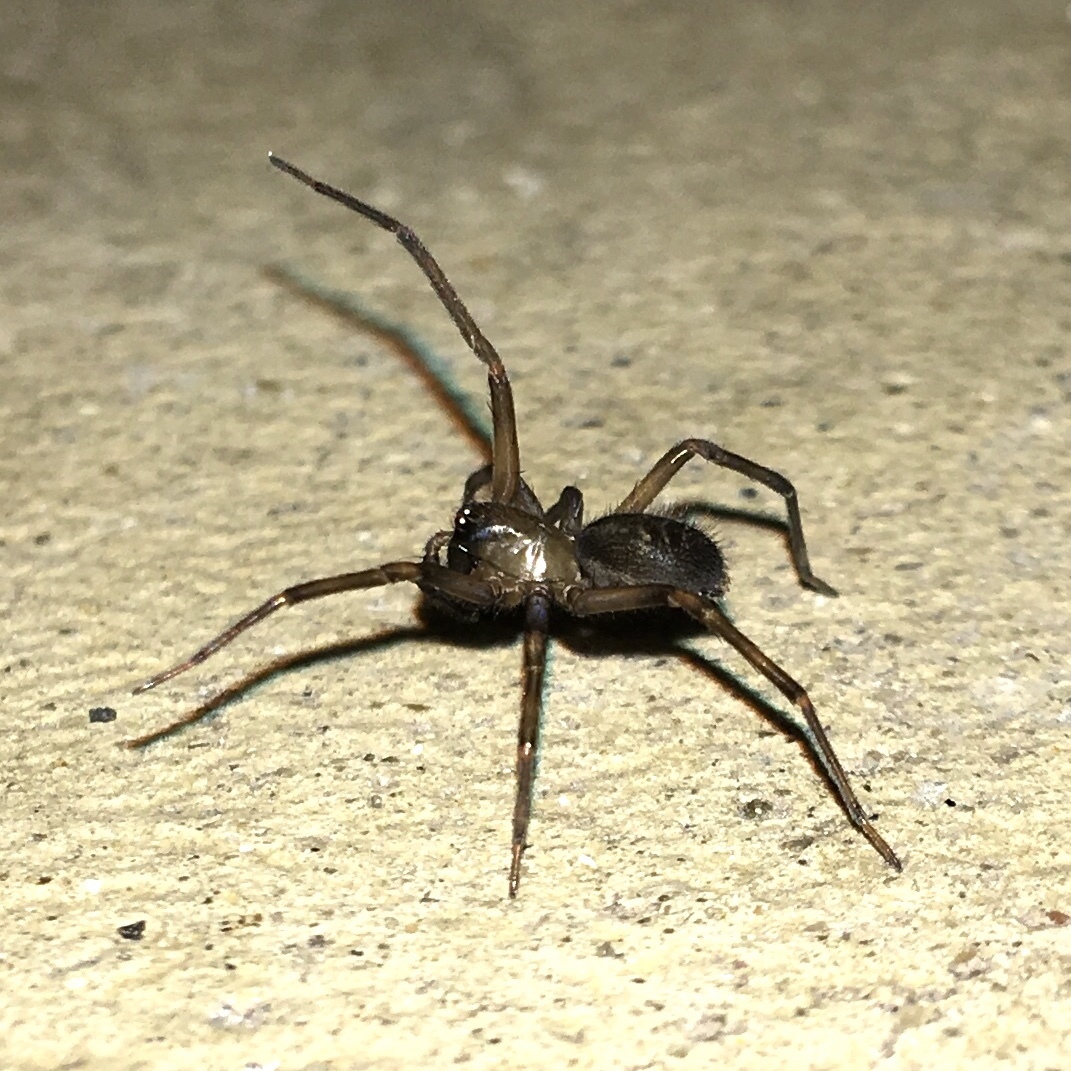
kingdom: Animalia
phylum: Arthropoda
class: Arachnida
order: Araneae
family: Desidae
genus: Metaltella
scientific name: Metaltella simoni
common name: Cribellate spider
